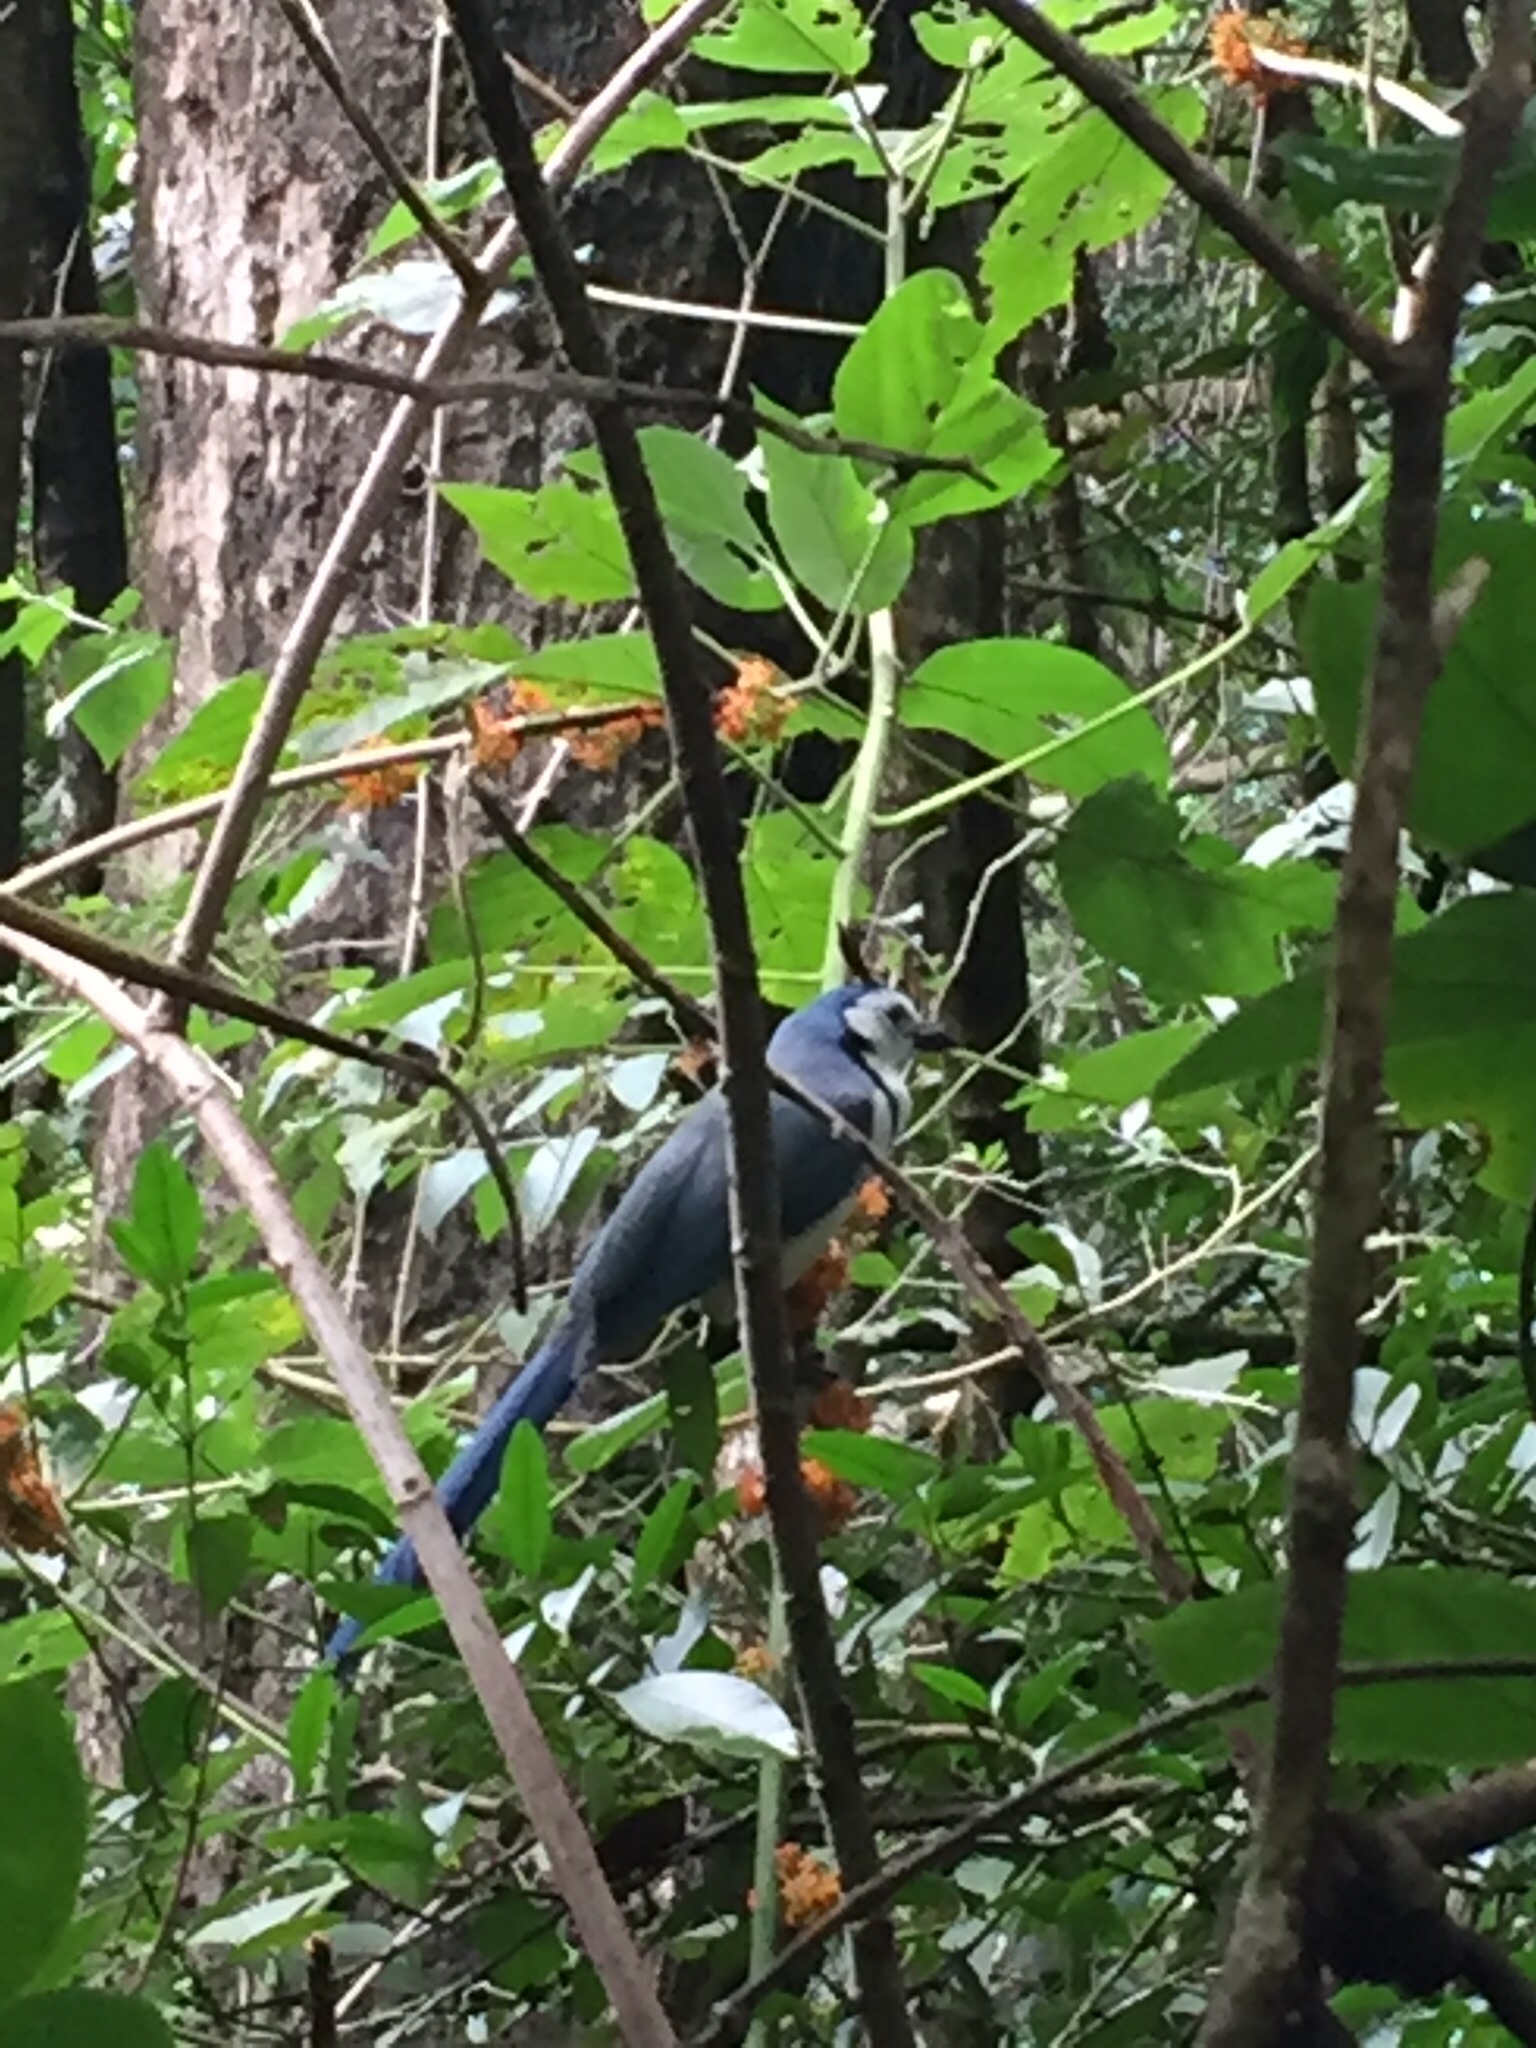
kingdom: Animalia
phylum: Chordata
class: Aves
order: Passeriformes
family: Corvidae
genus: Calocitta
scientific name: Calocitta formosa
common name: White-throated magpie-jay
